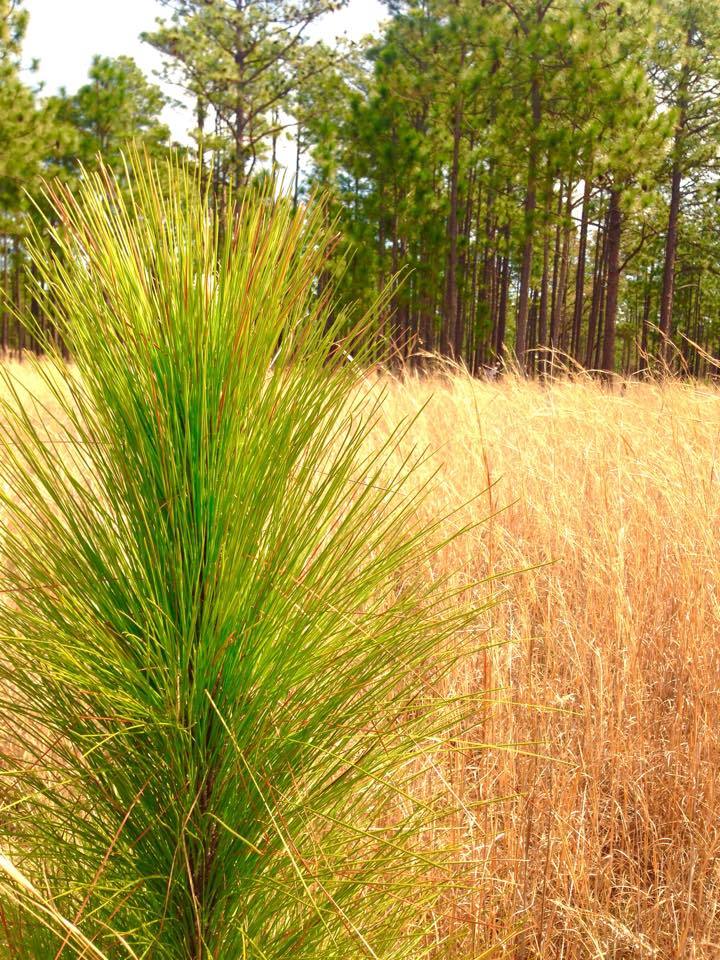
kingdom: Plantae
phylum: Tracheophyta
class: Pinopsida
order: Pinales
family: Pinaceae
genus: Pinus
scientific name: Pinus palustris
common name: Longleaf pine
